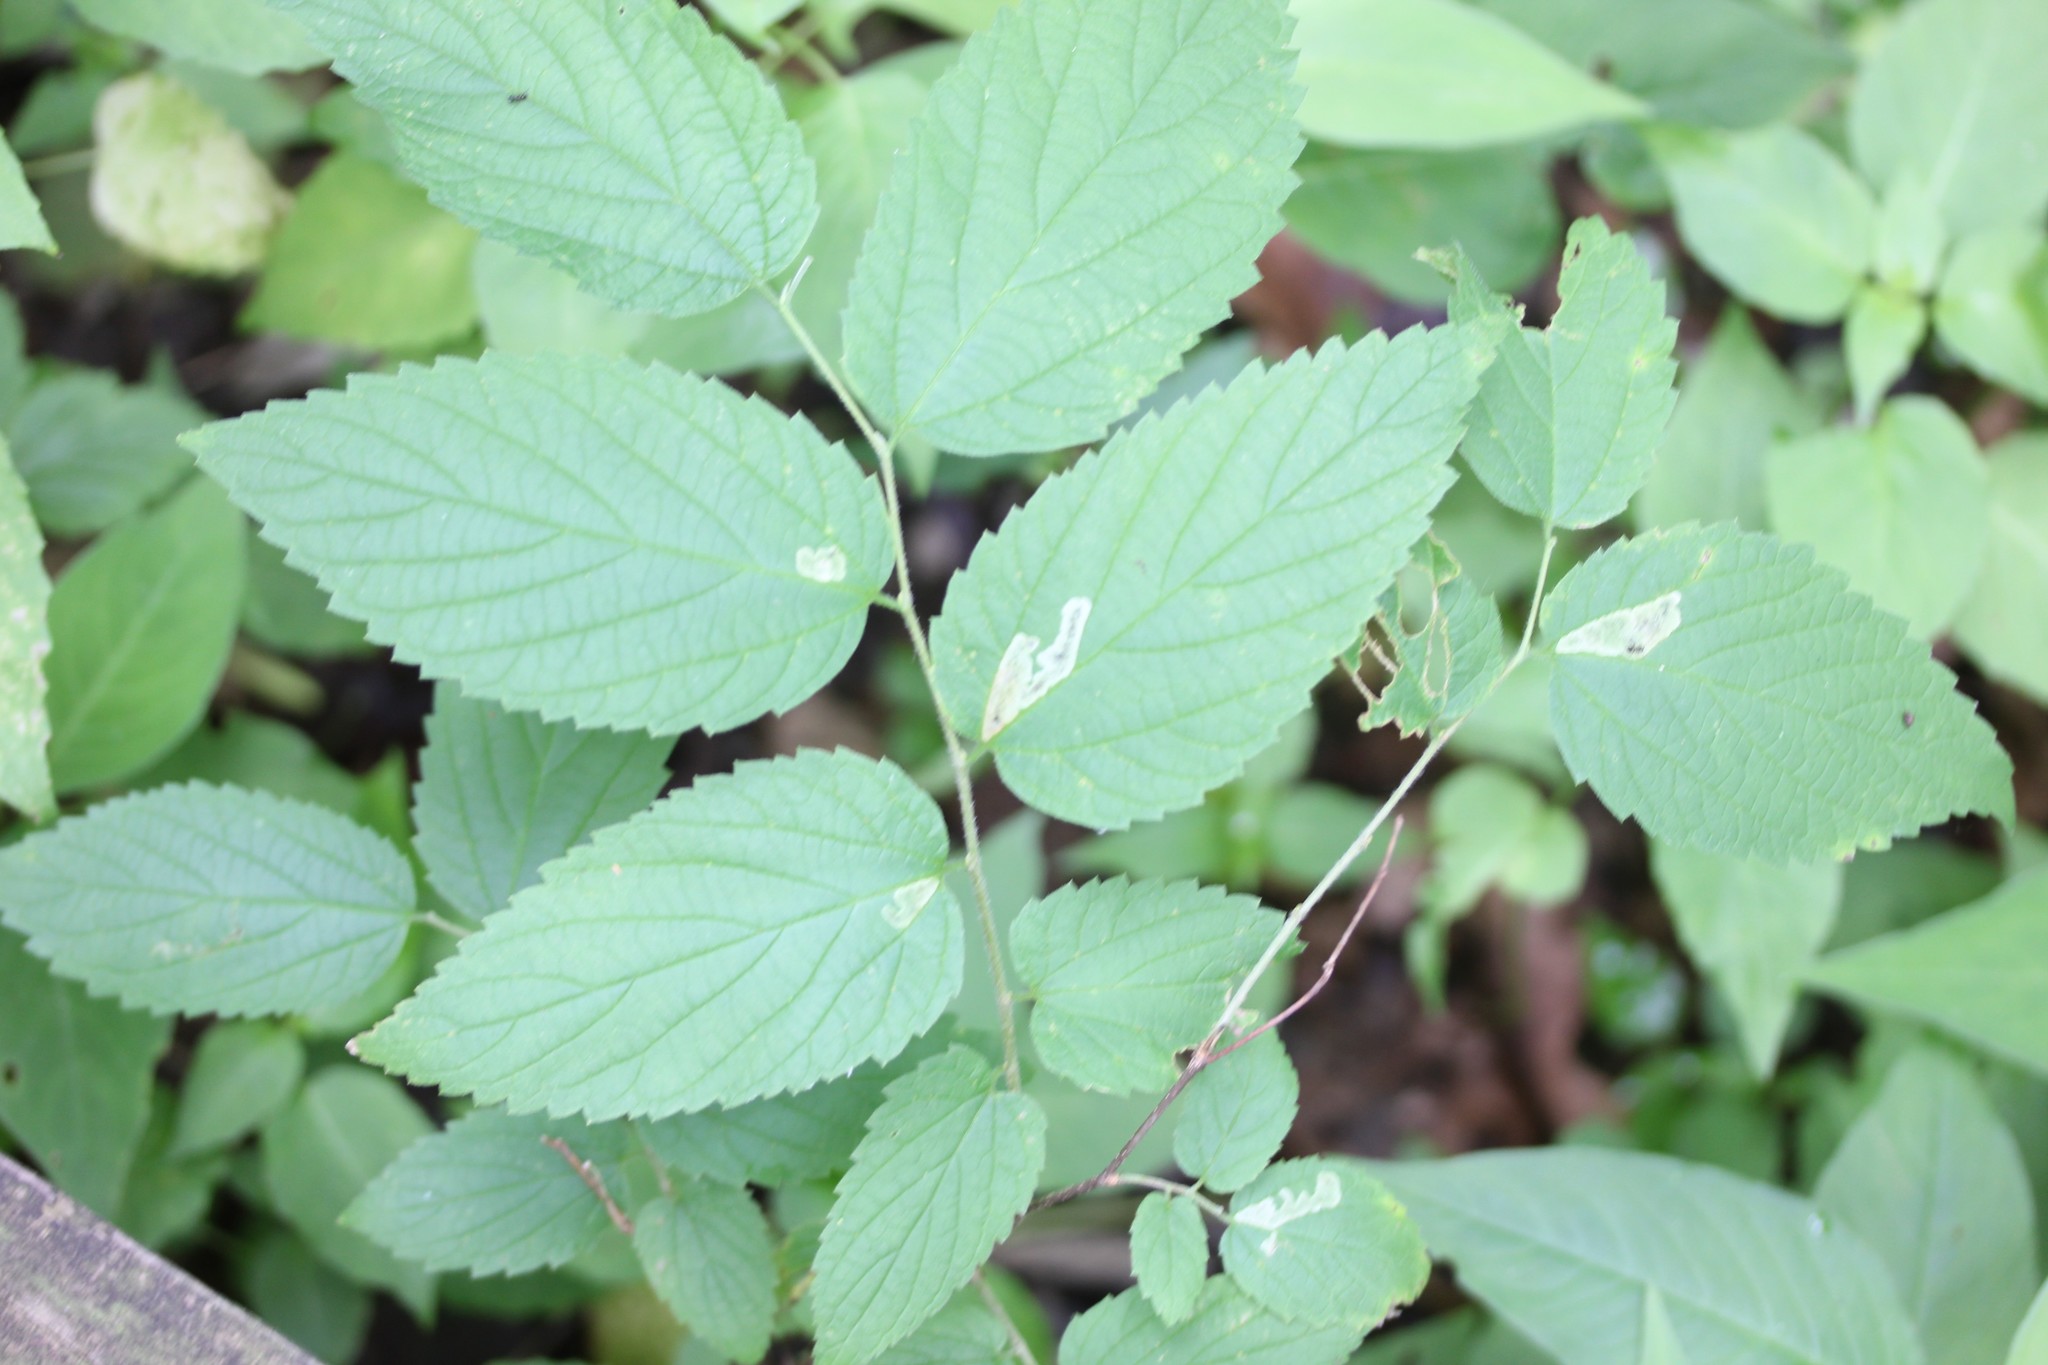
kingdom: Plantae
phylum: Tracheophyta
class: Magnoliopsida
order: Rosales
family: Cannabaceae
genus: Celtis
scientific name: Celtis occidentalis
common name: Common hackberry
